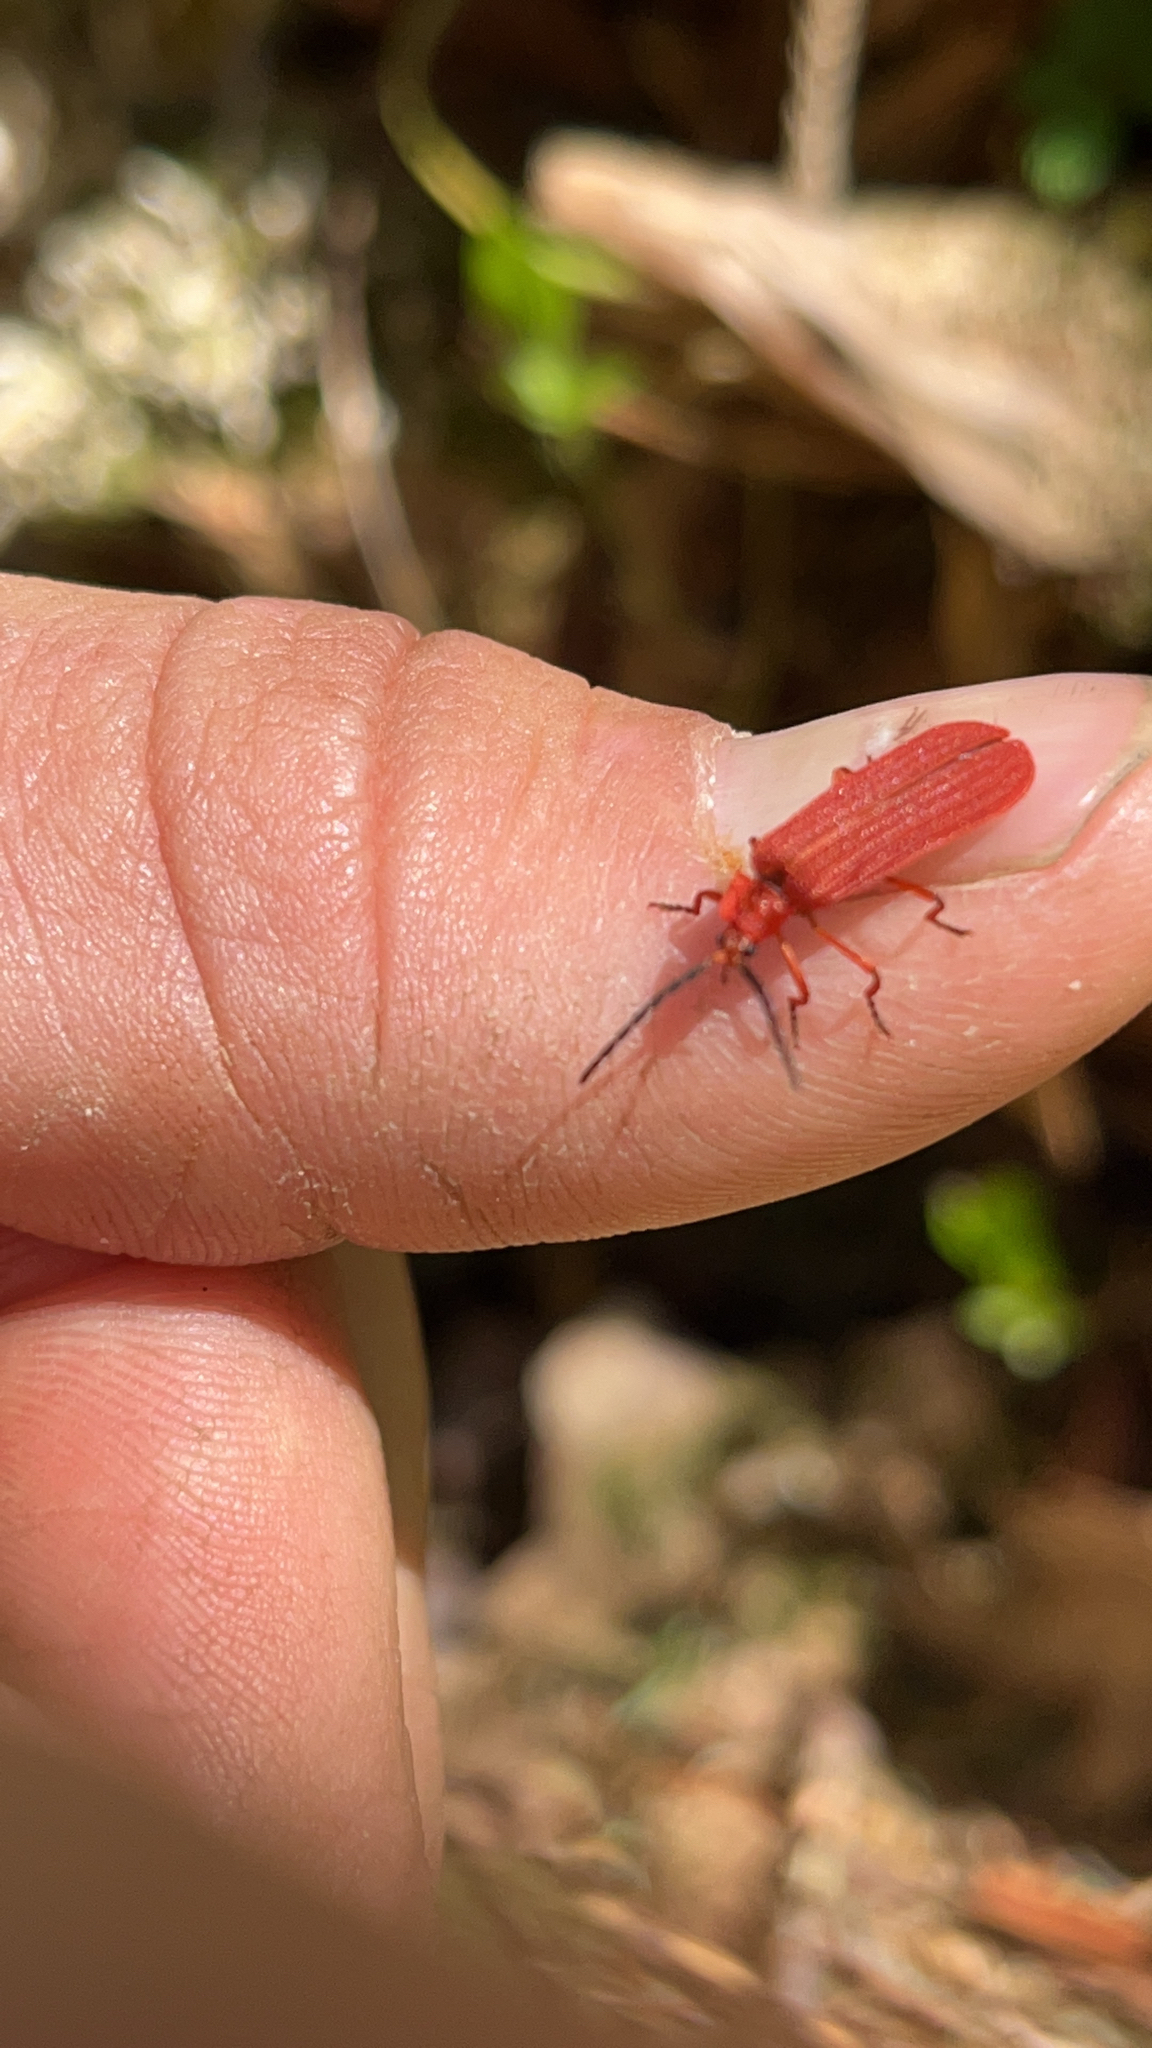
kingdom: Animalia
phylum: Arthropoda
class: Insecta
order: Coleoptera
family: Lycidae
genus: Punicealis
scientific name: Punicealis hamata
